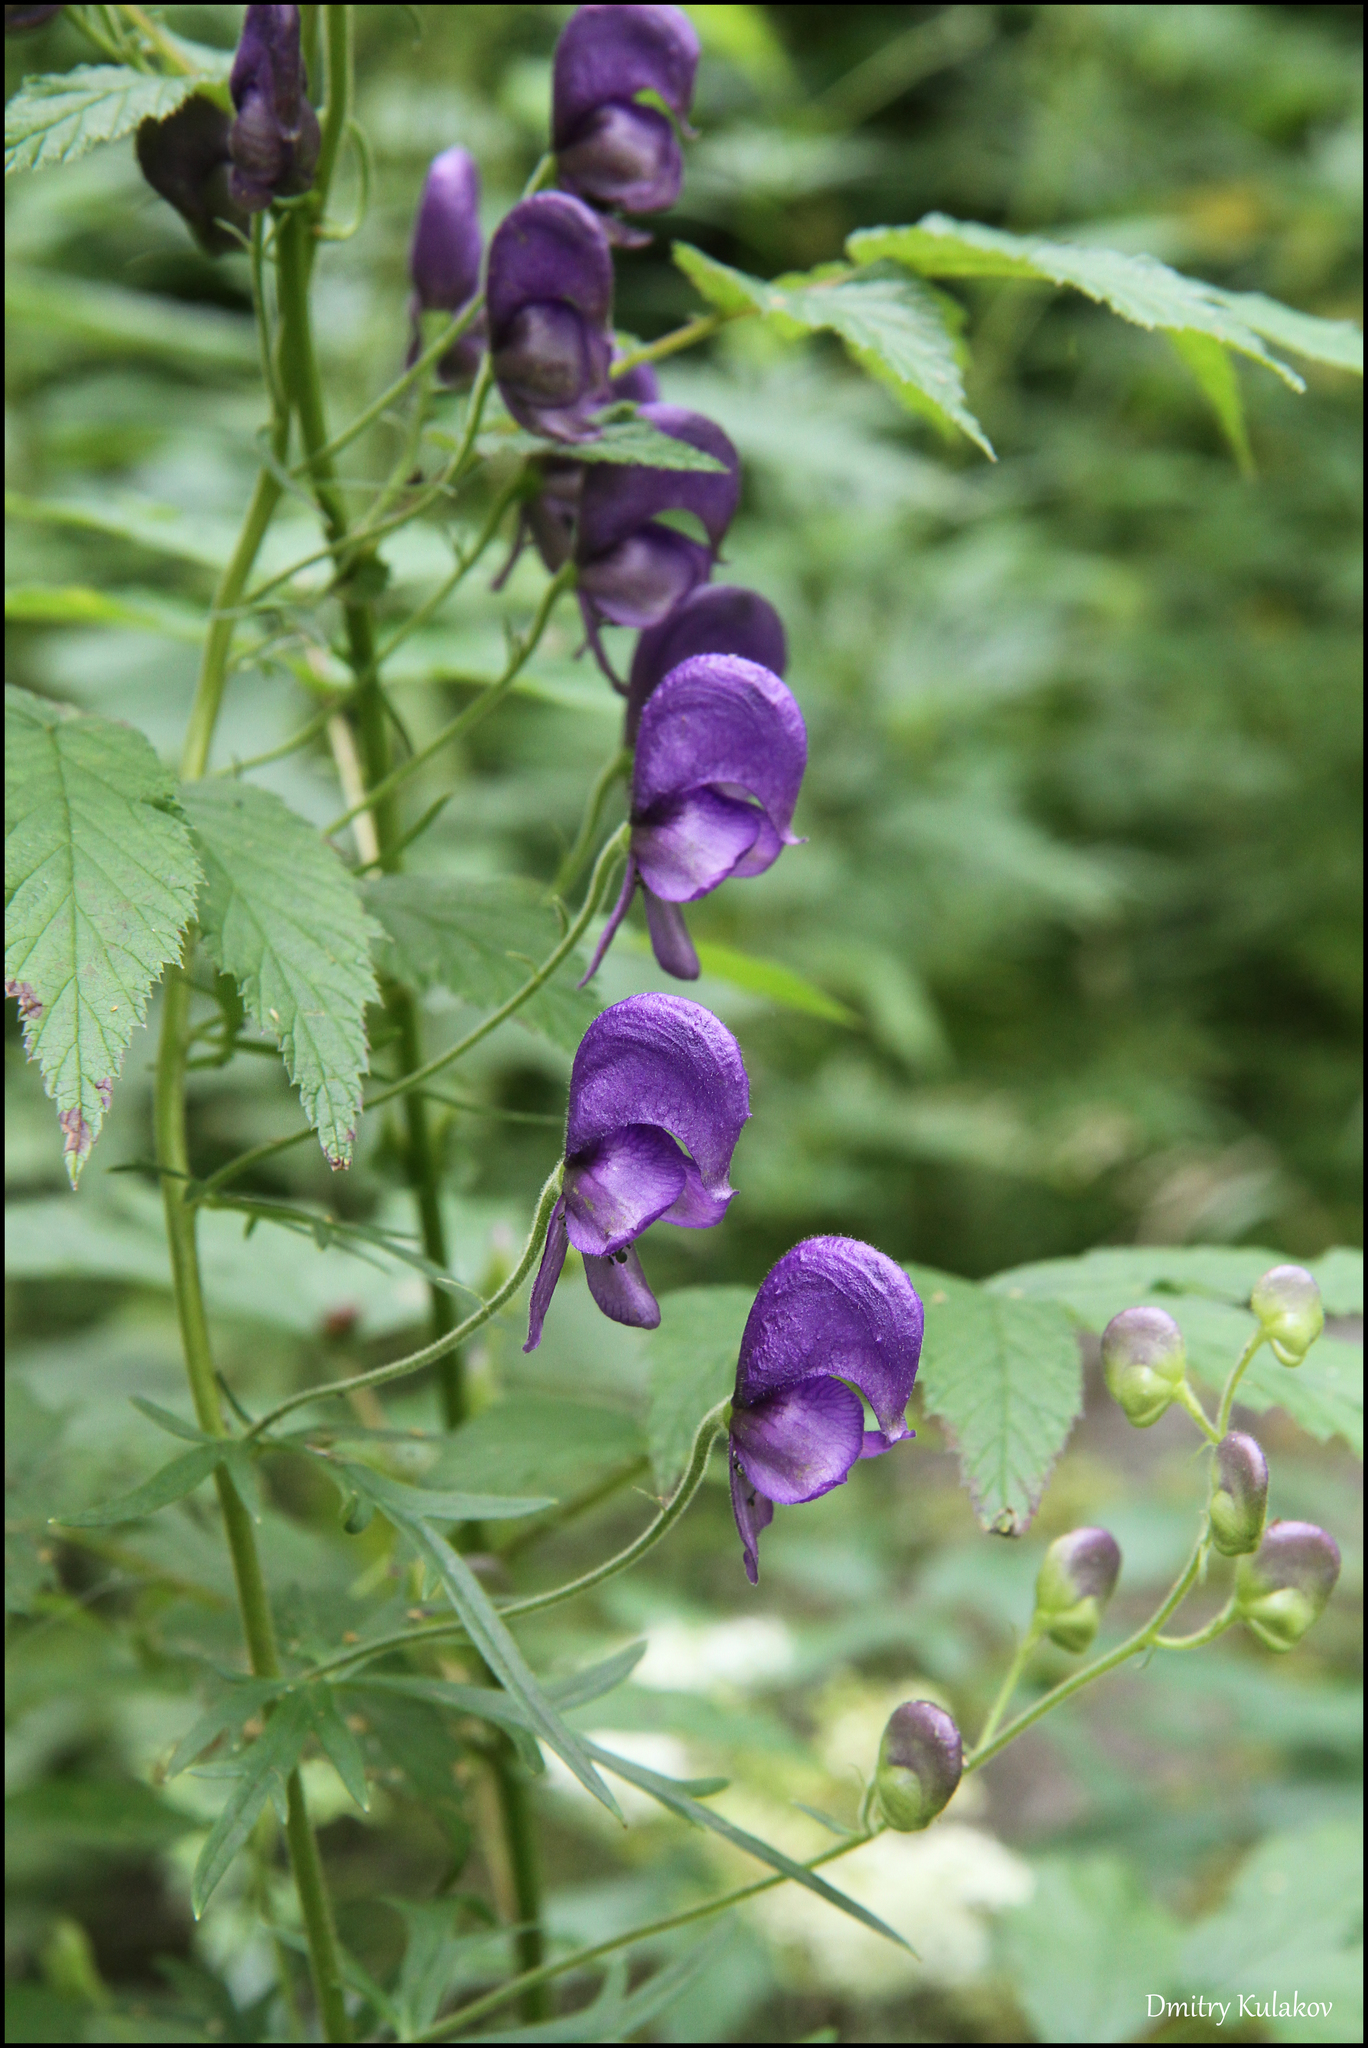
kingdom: Plantae
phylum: Tracheophyta
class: Magnoliopsida
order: Ranunculales
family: Ranunculaceae
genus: Aconitum
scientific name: Aconitum baicalense
